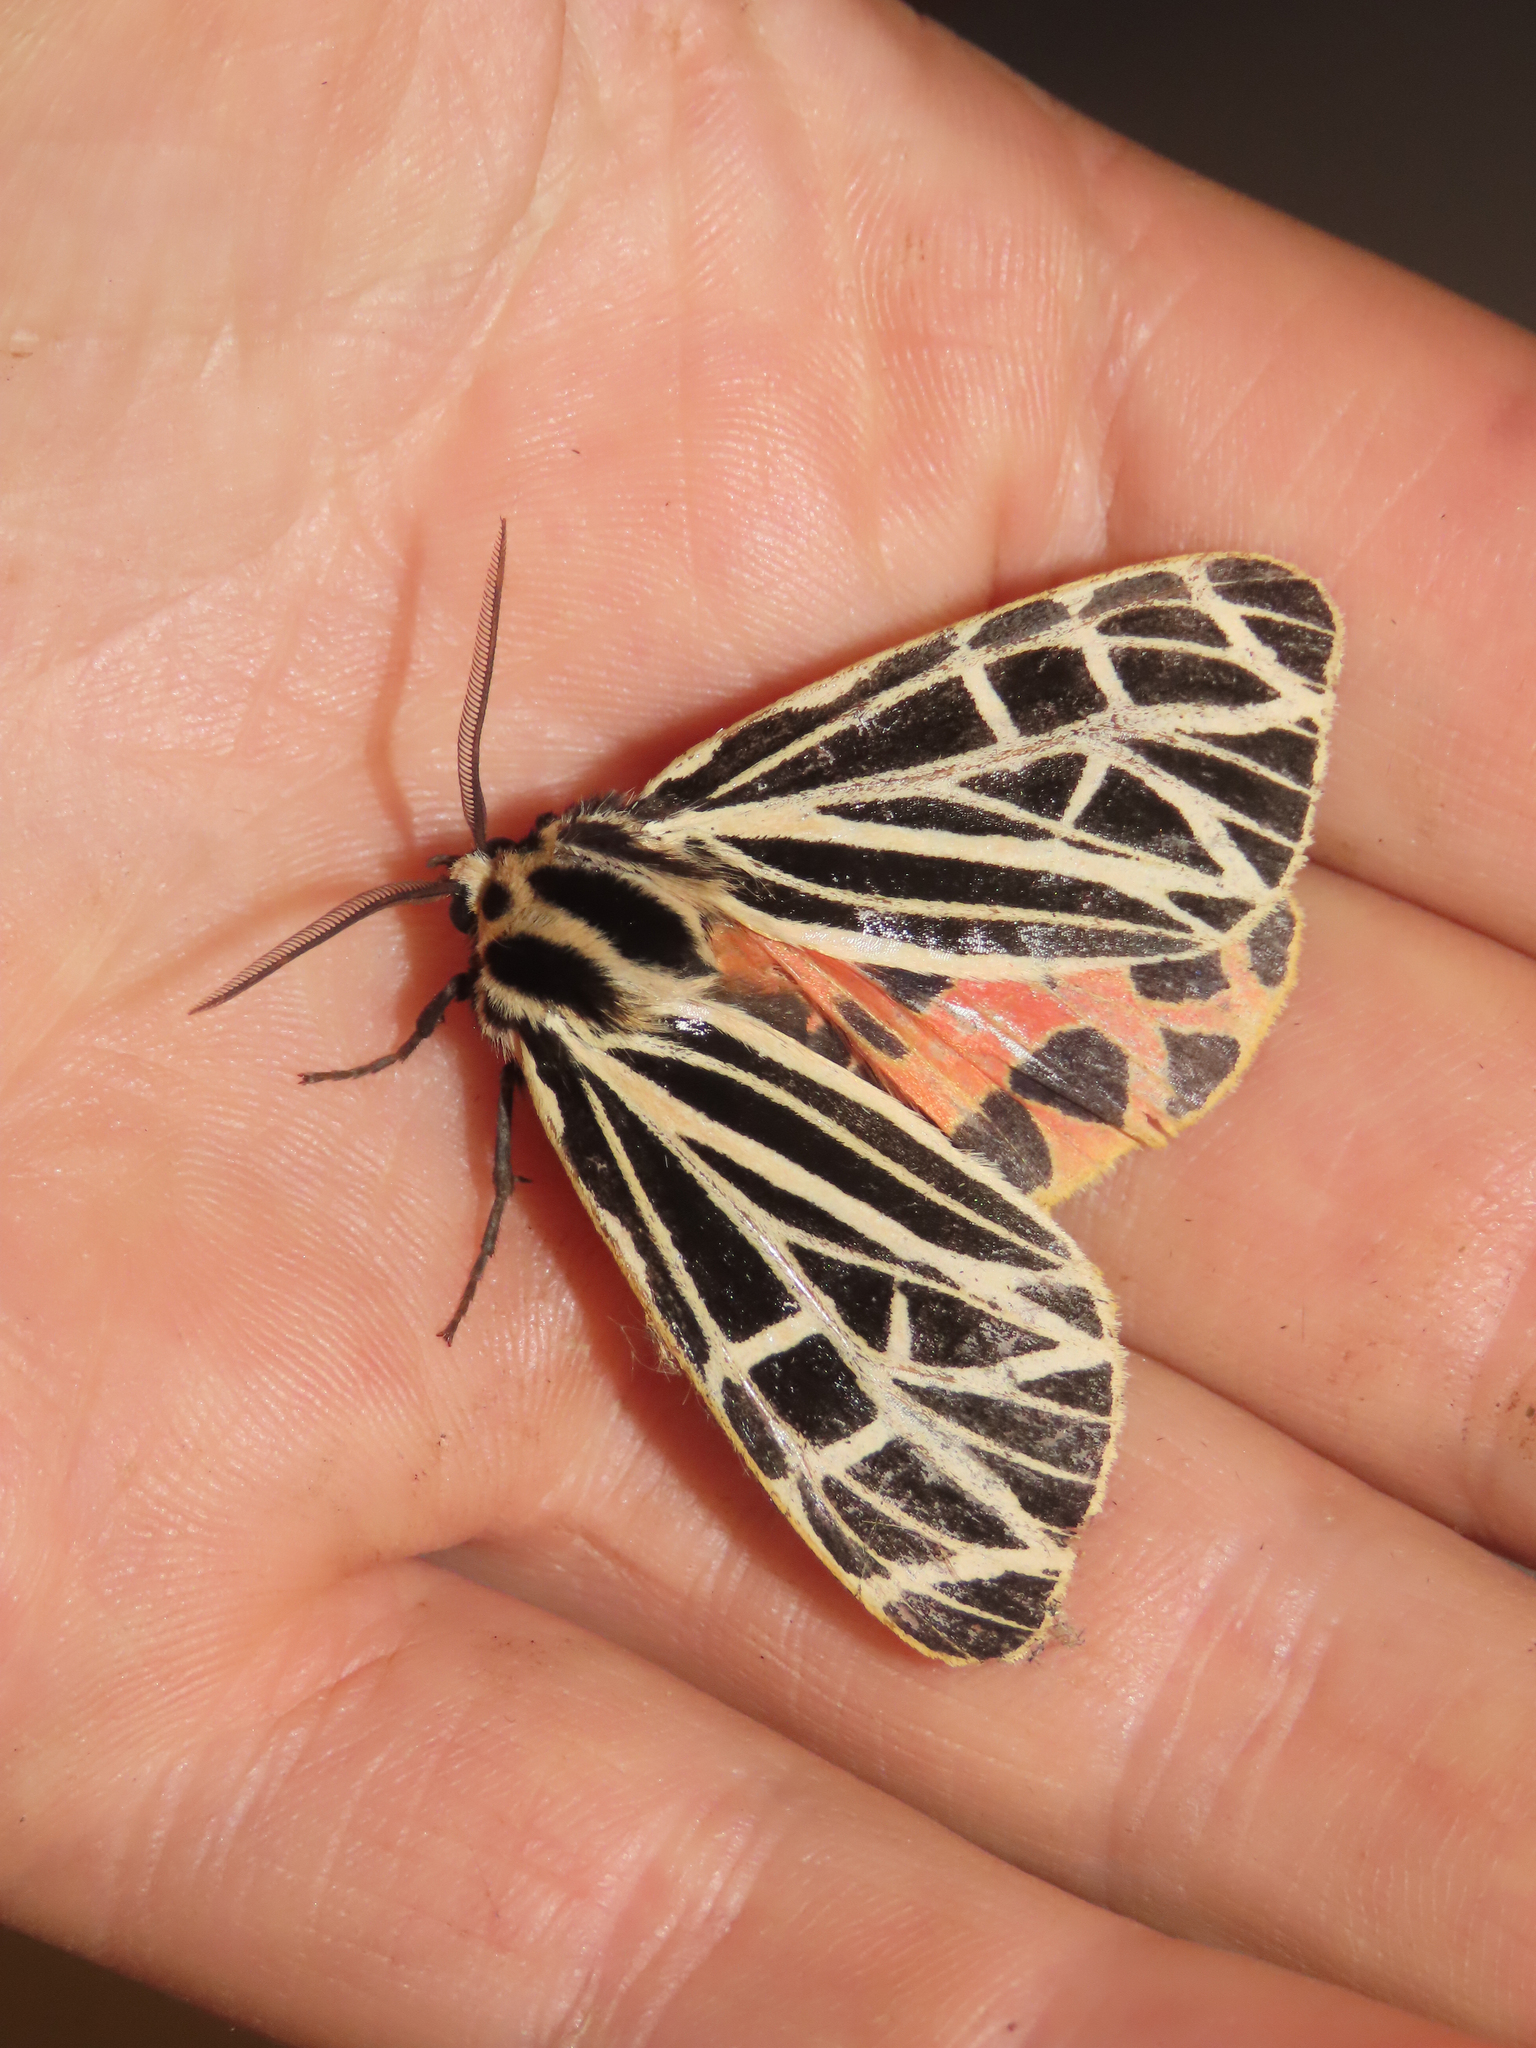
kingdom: Animalia
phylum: Arthropoda
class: Insecta
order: Lepidoptera
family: Erebidae
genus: Grammia
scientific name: Grammia virgo
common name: Virgin tiger moth
